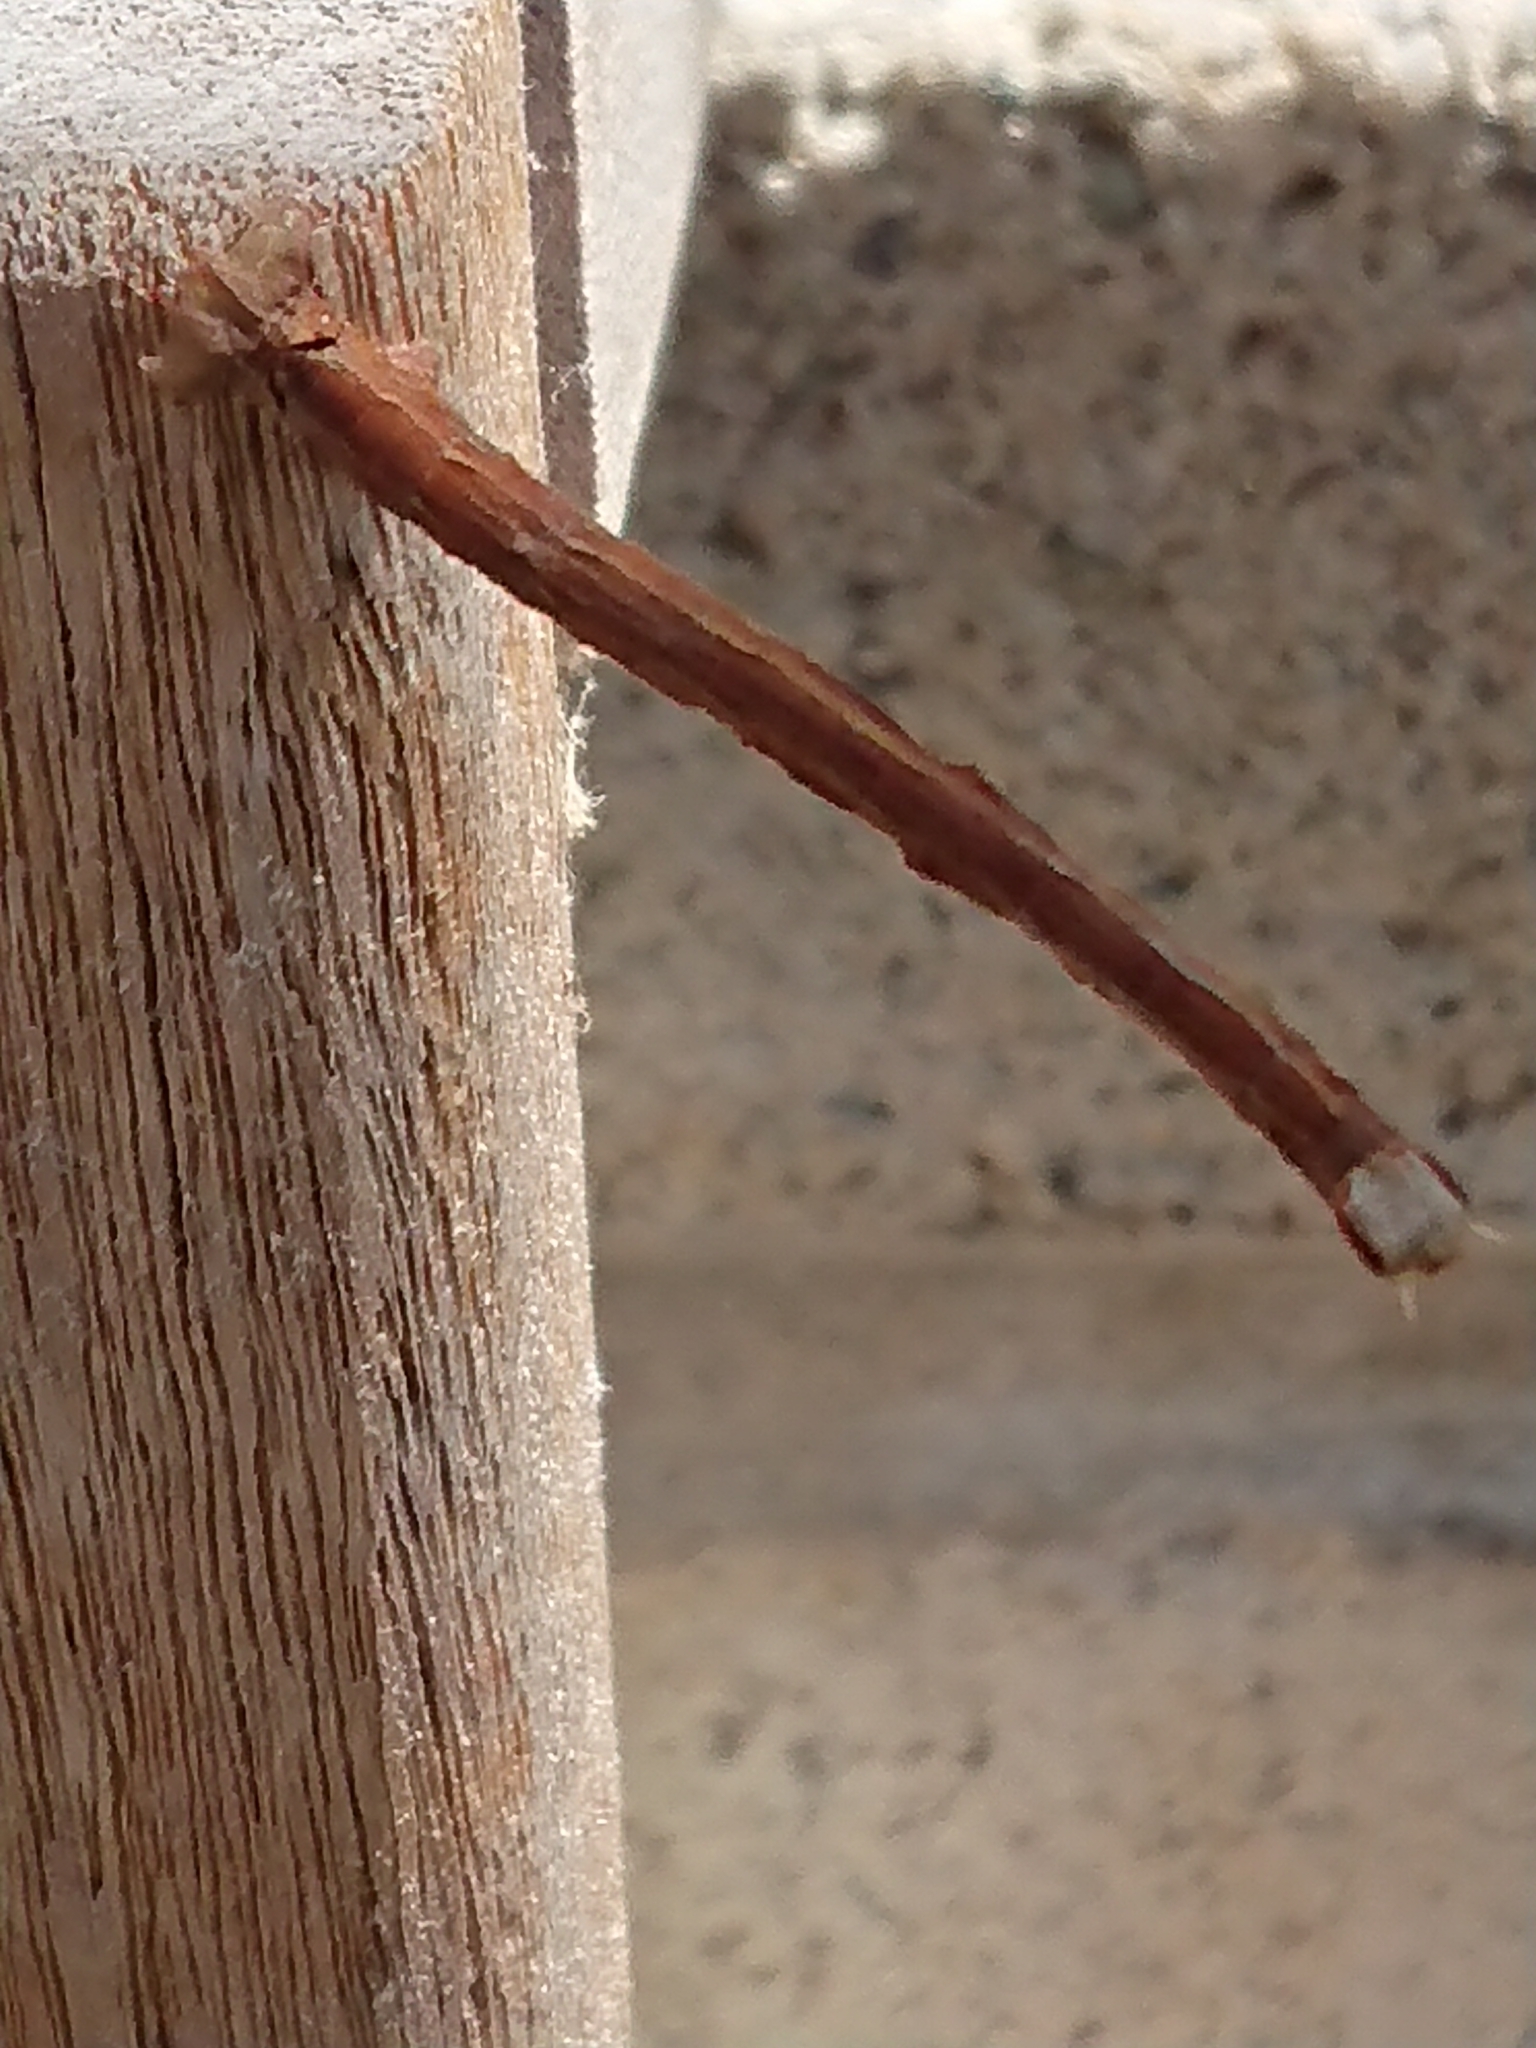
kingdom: Animalia
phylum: Arthropoda
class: Insecta
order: Lepidoptera
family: Geometridae
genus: Declana
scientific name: Declana leptomera
